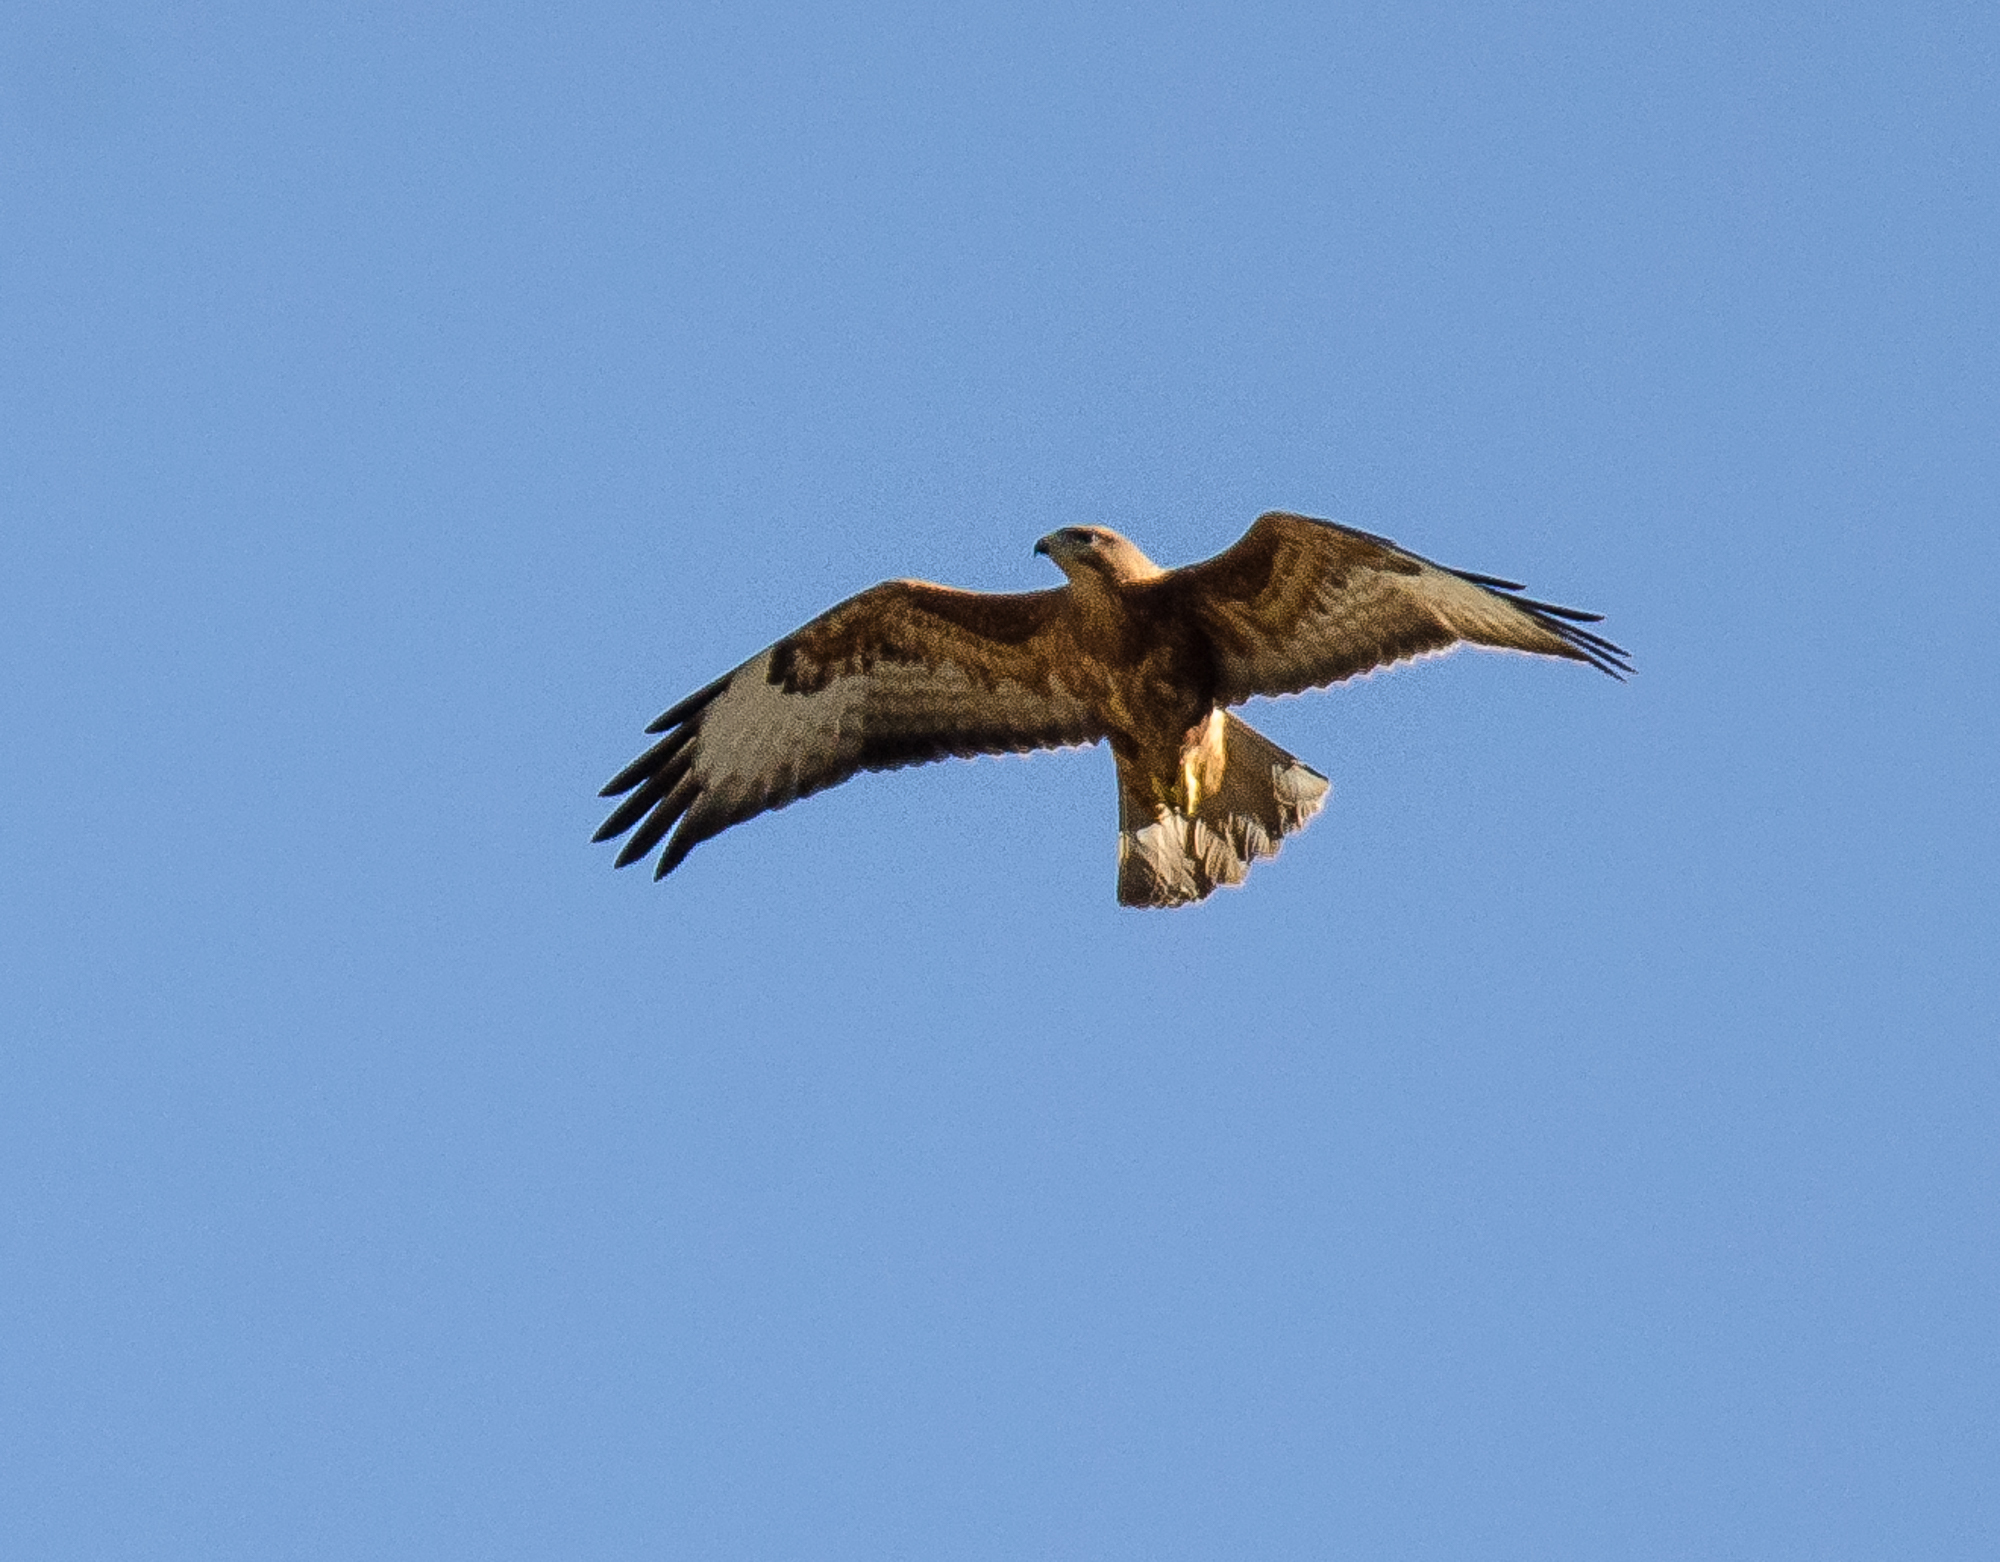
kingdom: Animalia
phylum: Chordata
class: Aves
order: Accipitriformes
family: Accipitridae
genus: Buteo
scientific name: Buteo buteo
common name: Common buzzard
